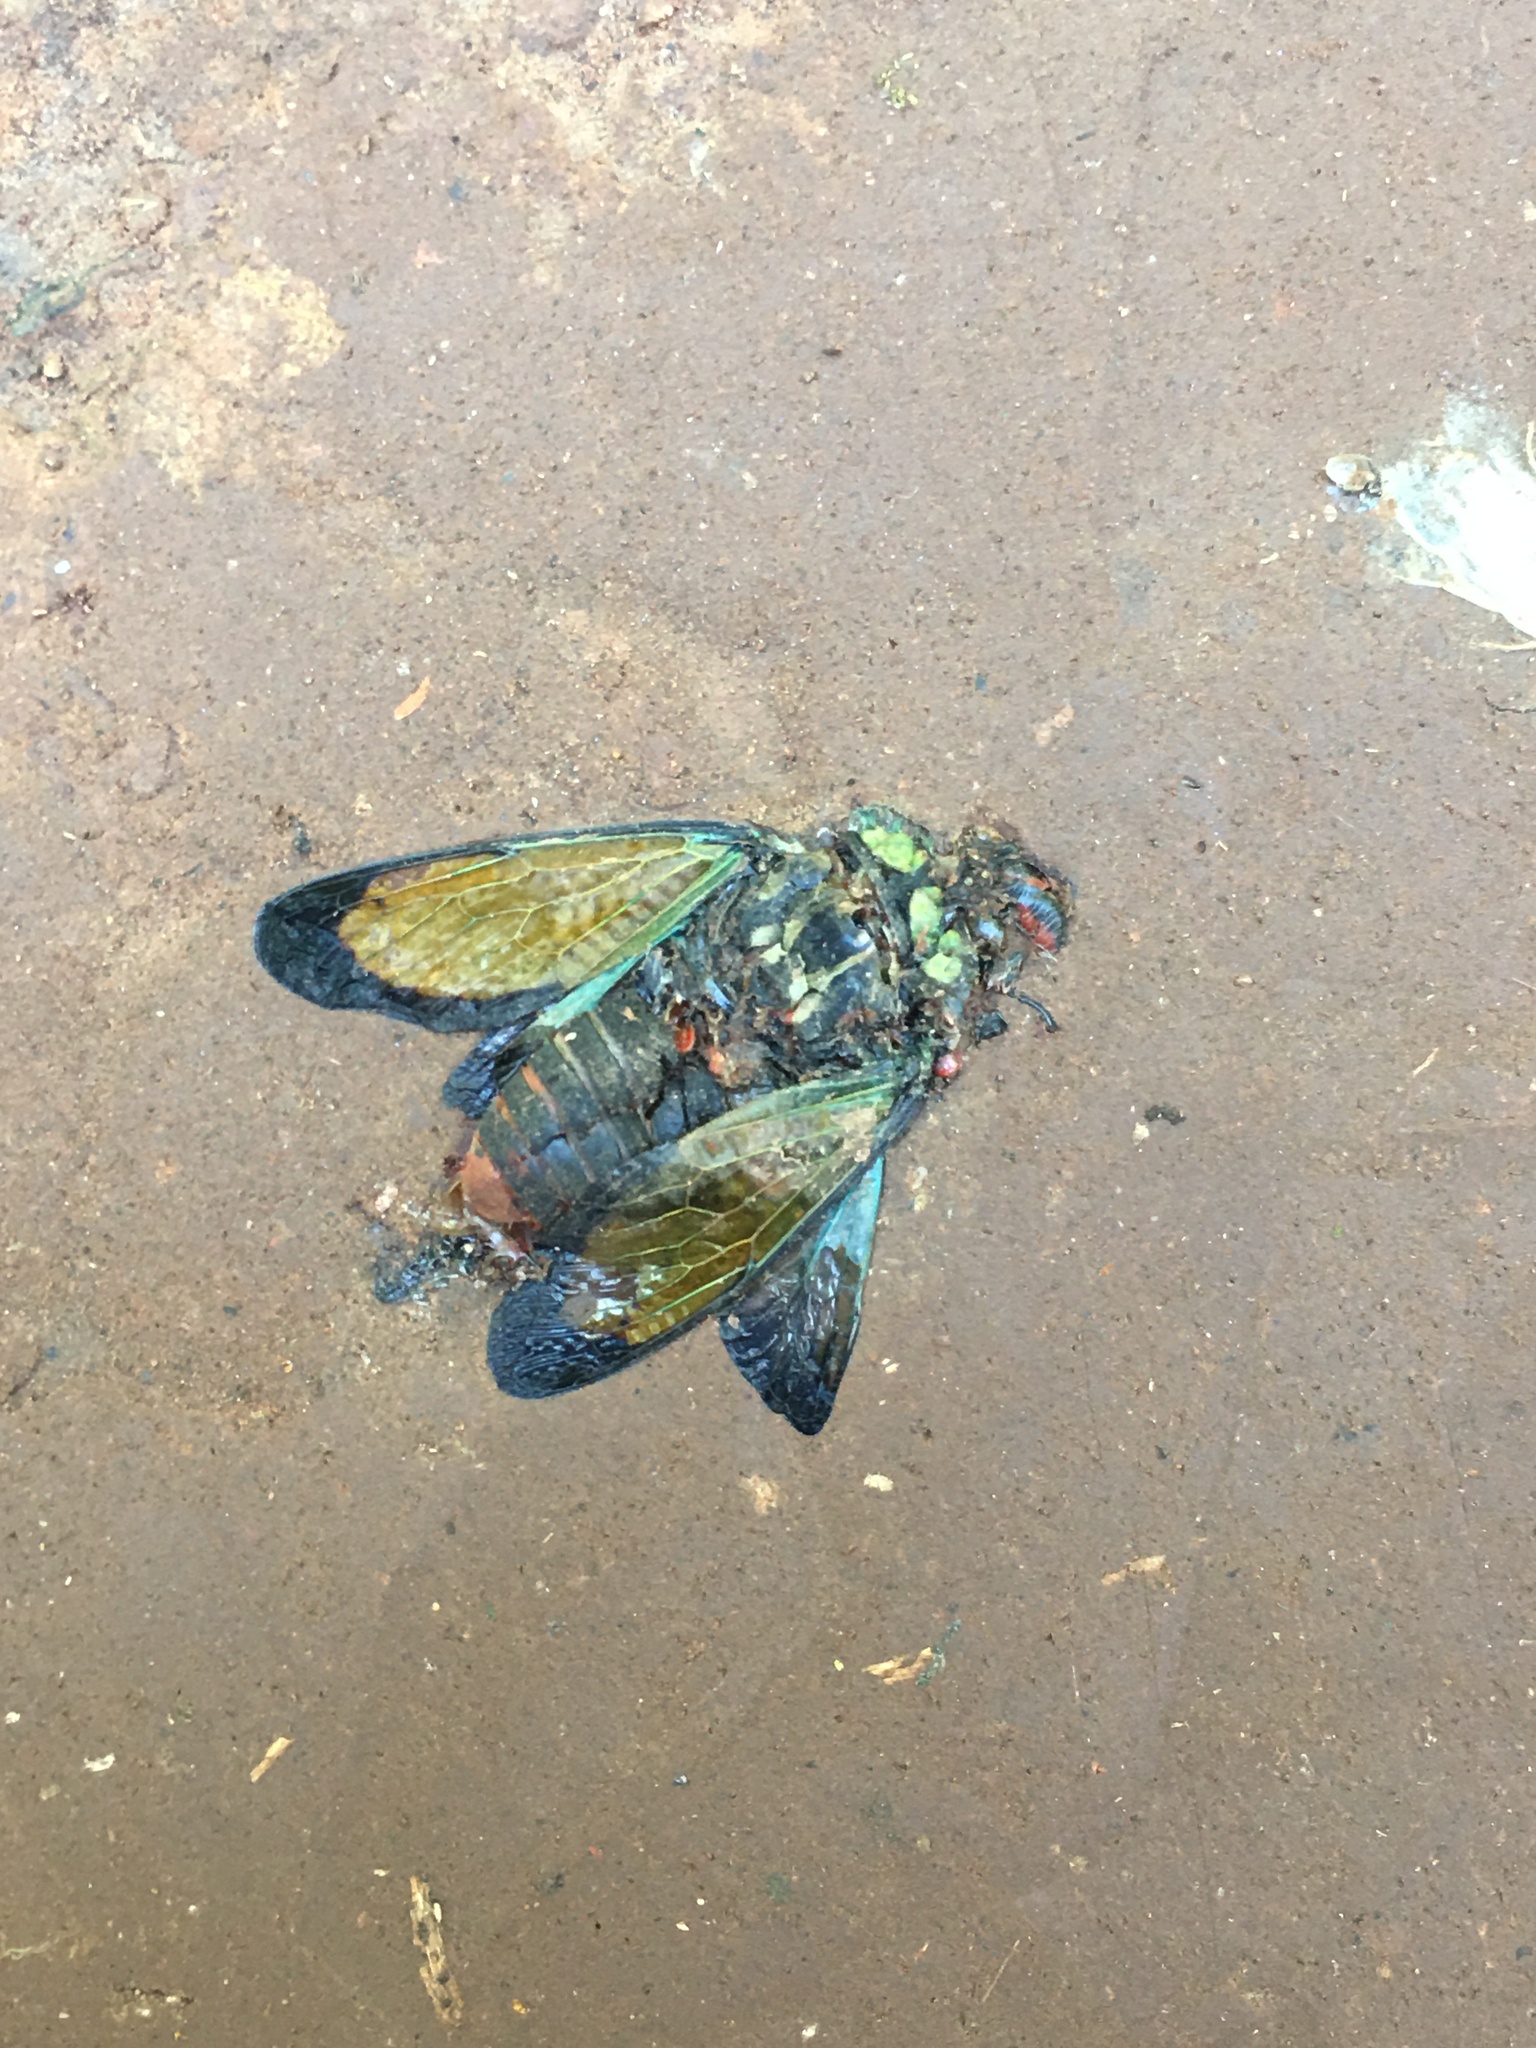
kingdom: Animalia
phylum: Arthropoda
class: Insecta
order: Hemiptera
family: Cicadidae
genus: Carineta
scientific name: Carineta diardi
